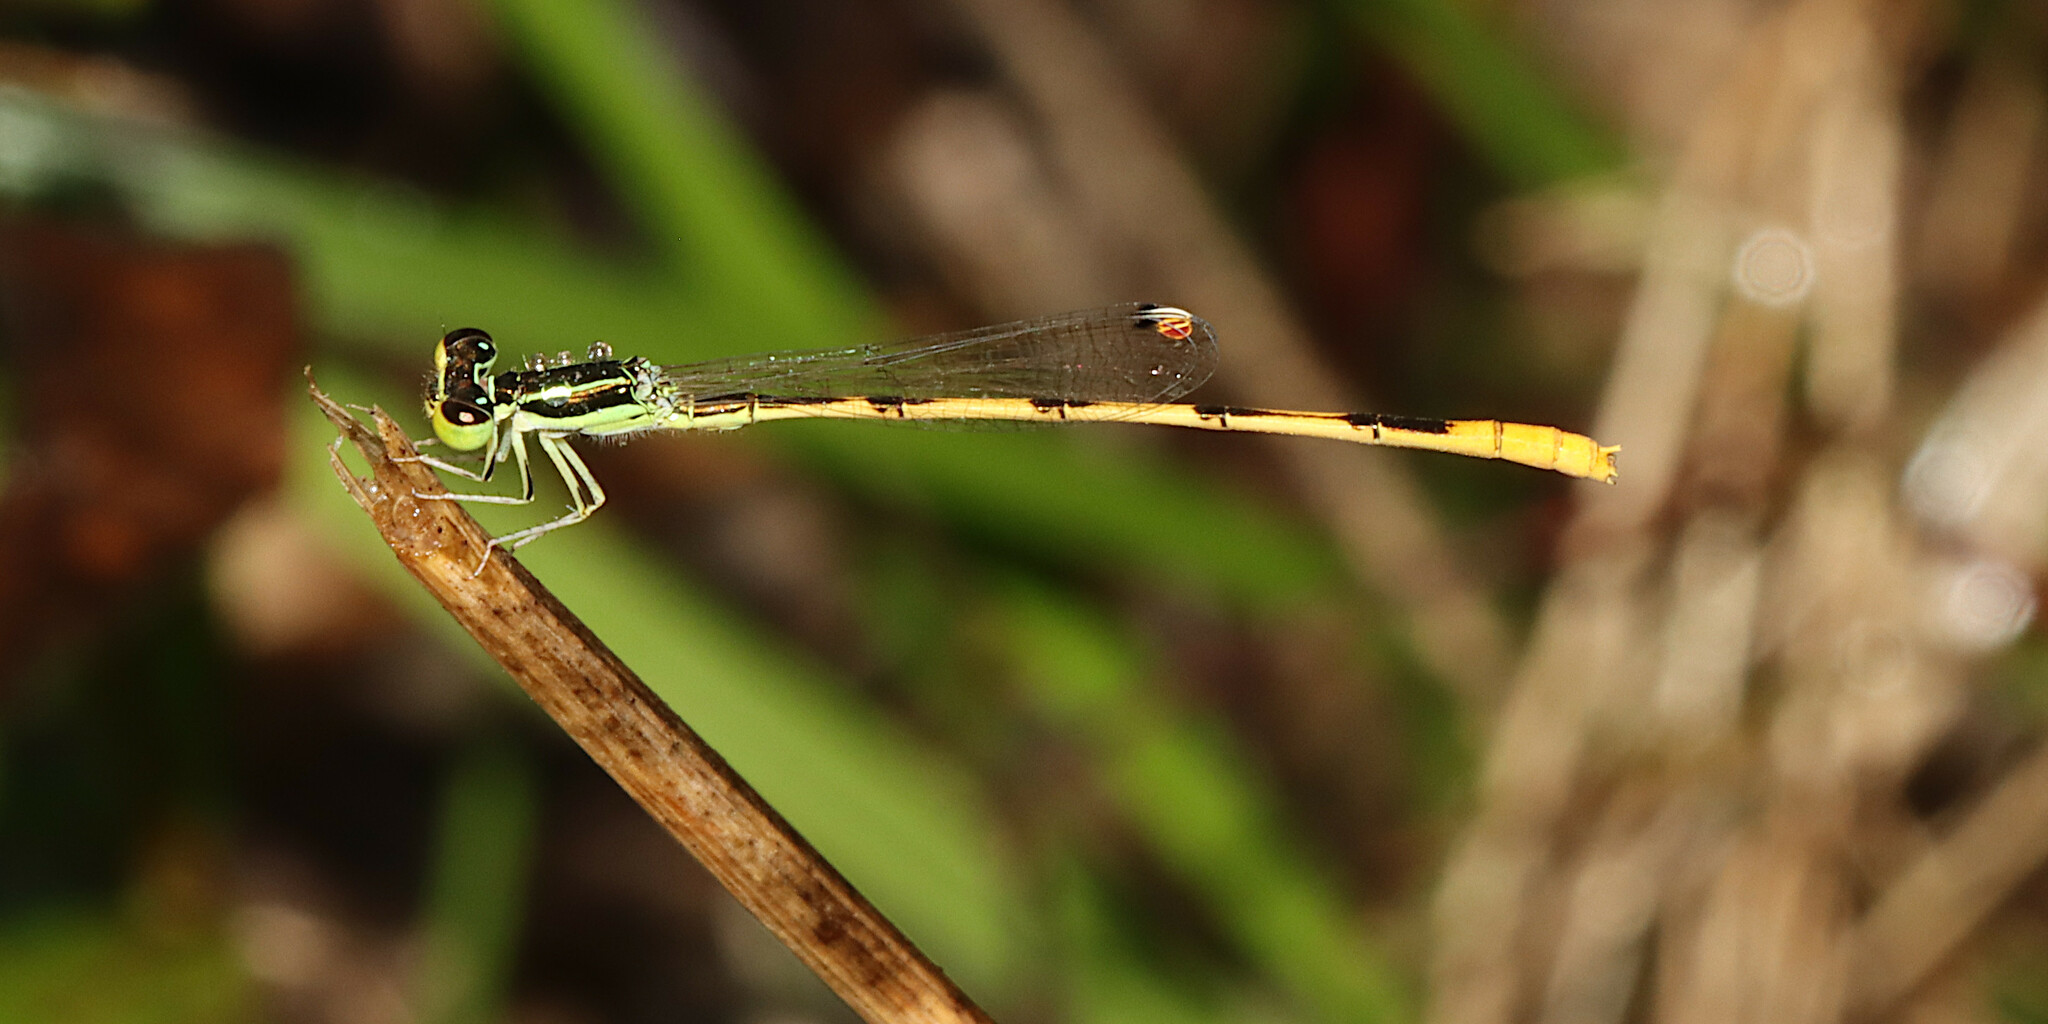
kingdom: Animalia
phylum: Arthropoda
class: Insecta
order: Odonata
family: Coenagrionidae
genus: Ischnura
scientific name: Ischnura hastata
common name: Citrine forktail
